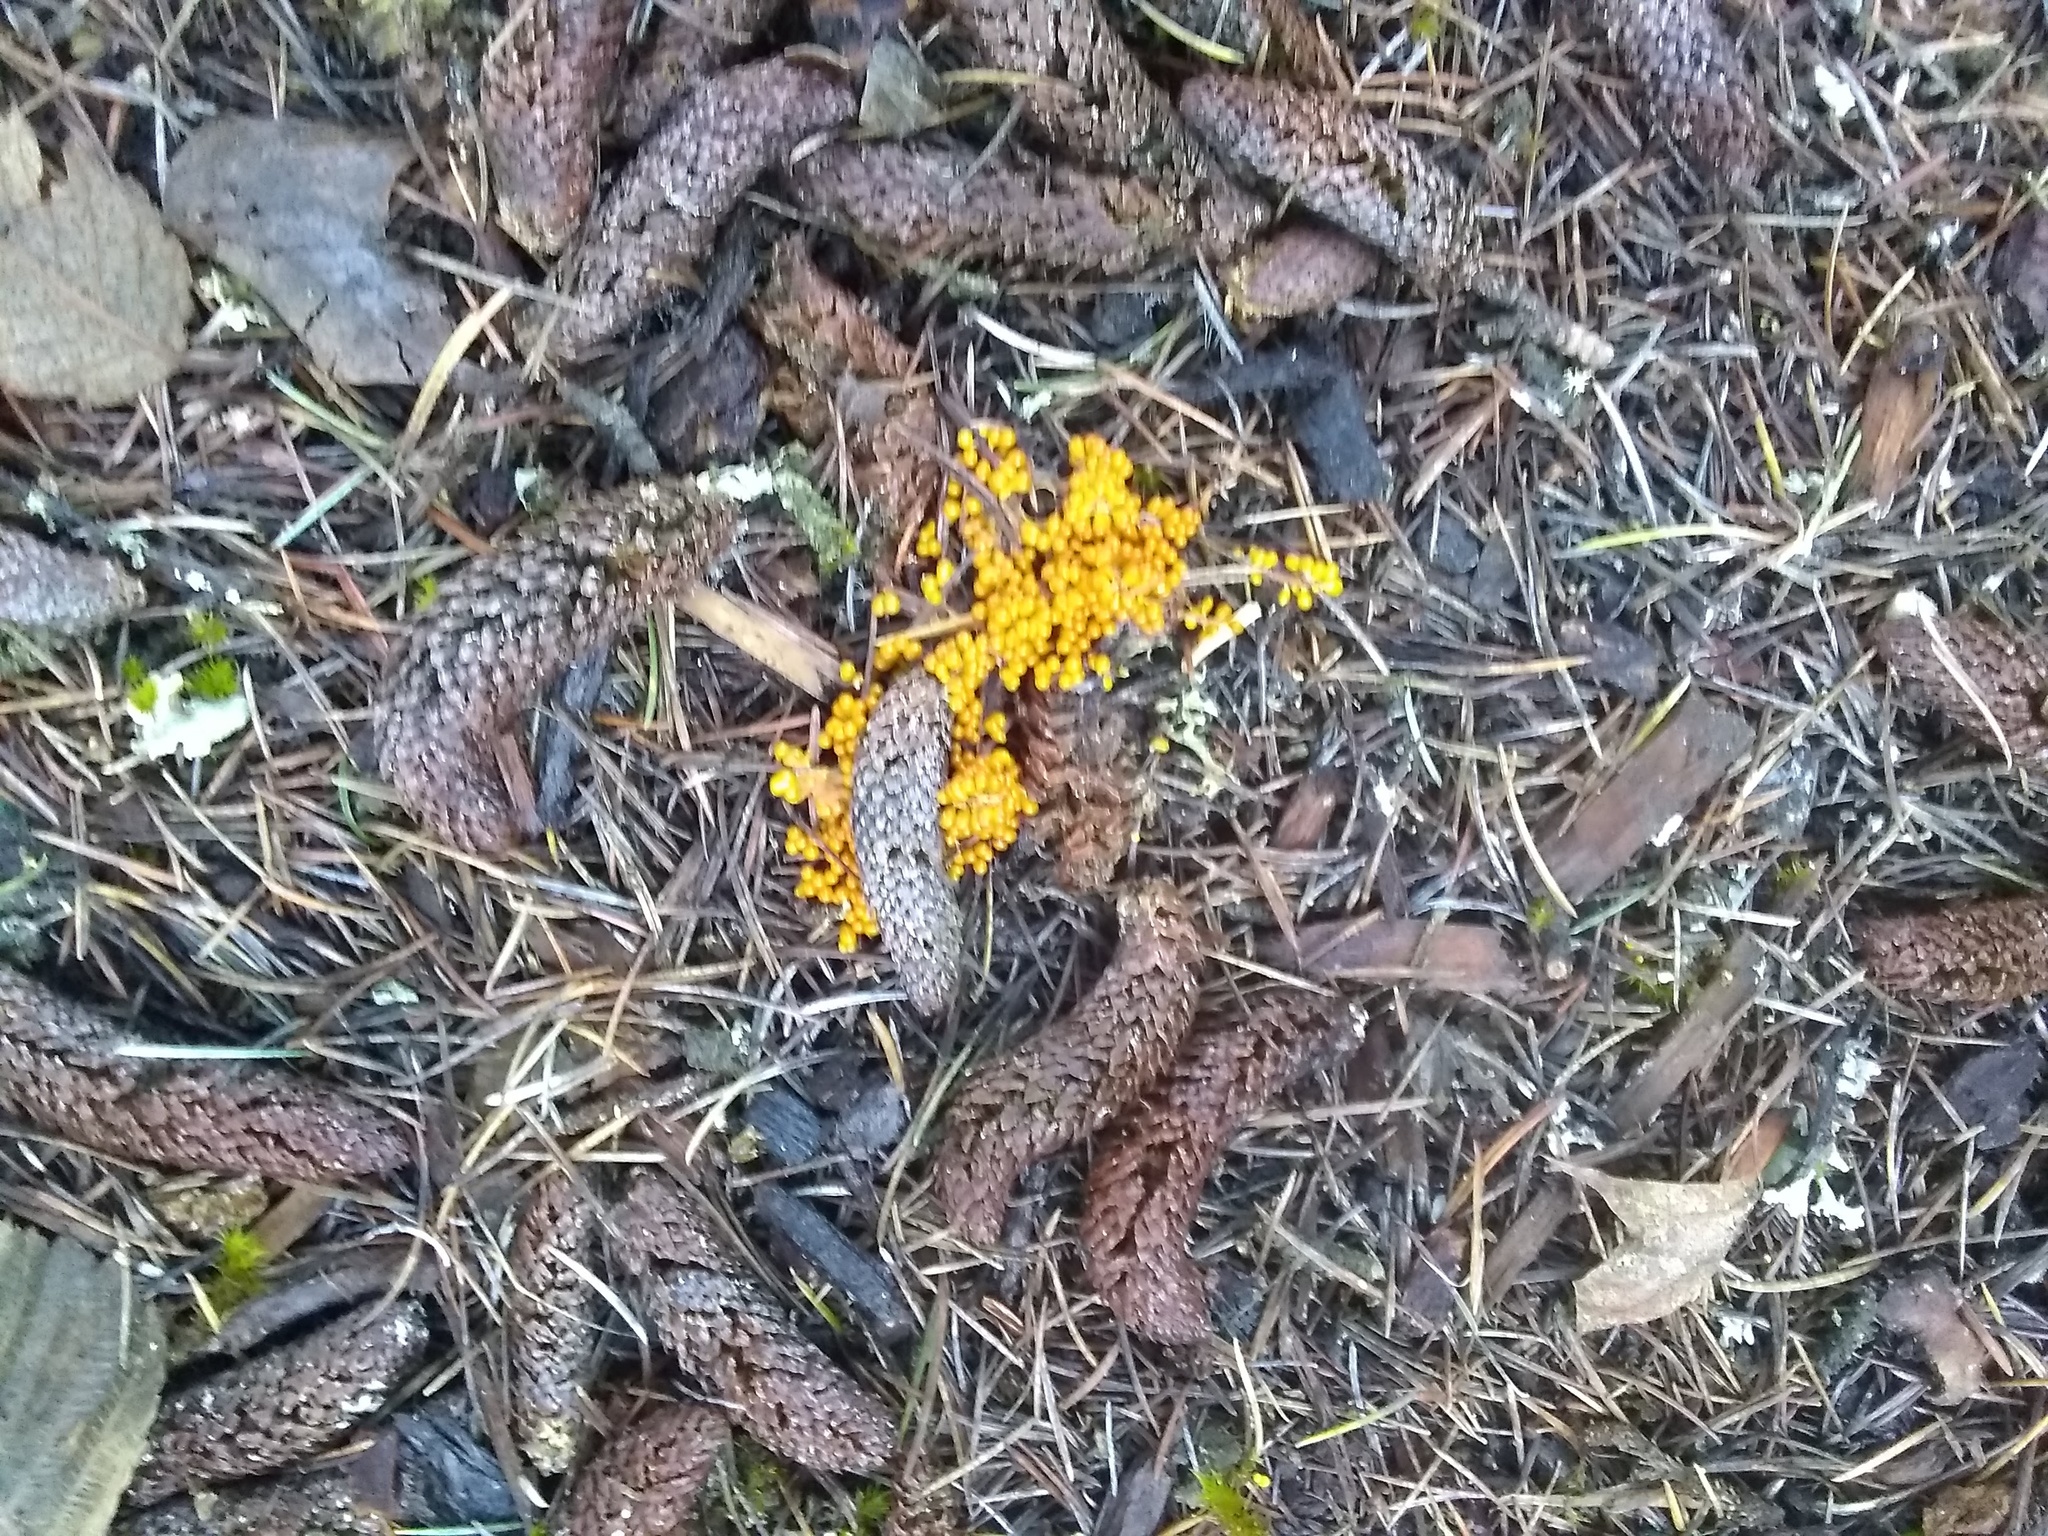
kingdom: Protozoa
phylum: Mycetozoa
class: Myxomycetes
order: Physarales
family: Physaraceae
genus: Leocarpus
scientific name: Leocarpus fragilis
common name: Insect-egg slime
